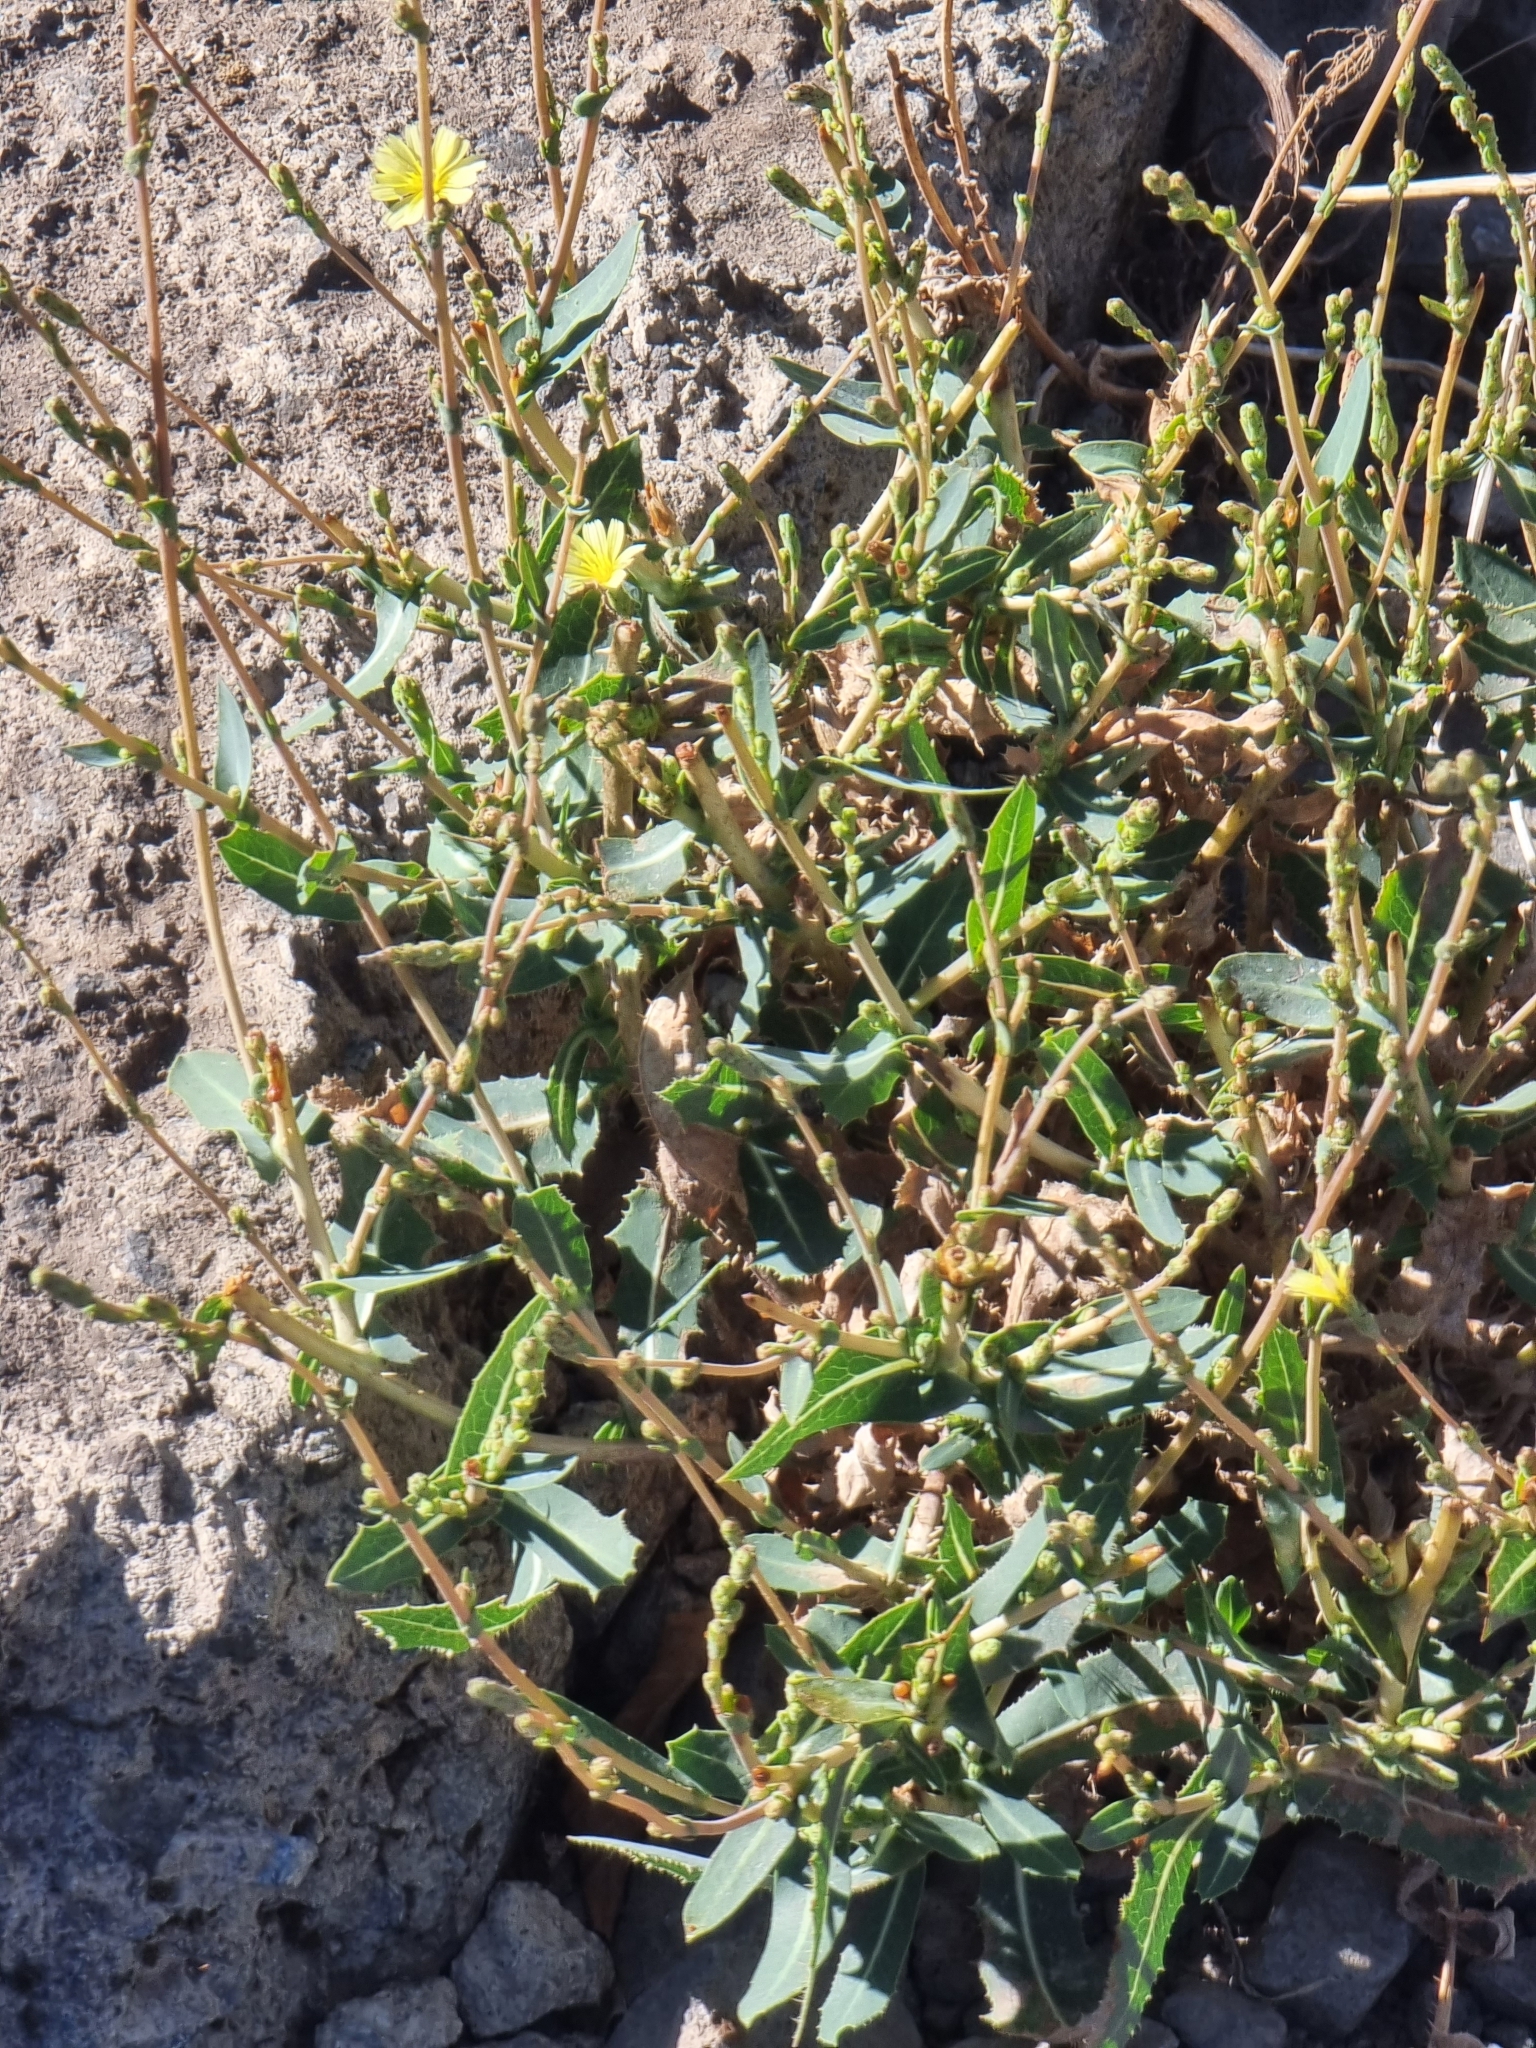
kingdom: Plantae
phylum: Tracheophyta
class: Magnoliopsida
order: Asterales
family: Asteraceae
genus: Lactuca
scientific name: Lactuca serriola
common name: Prickly lettuce
